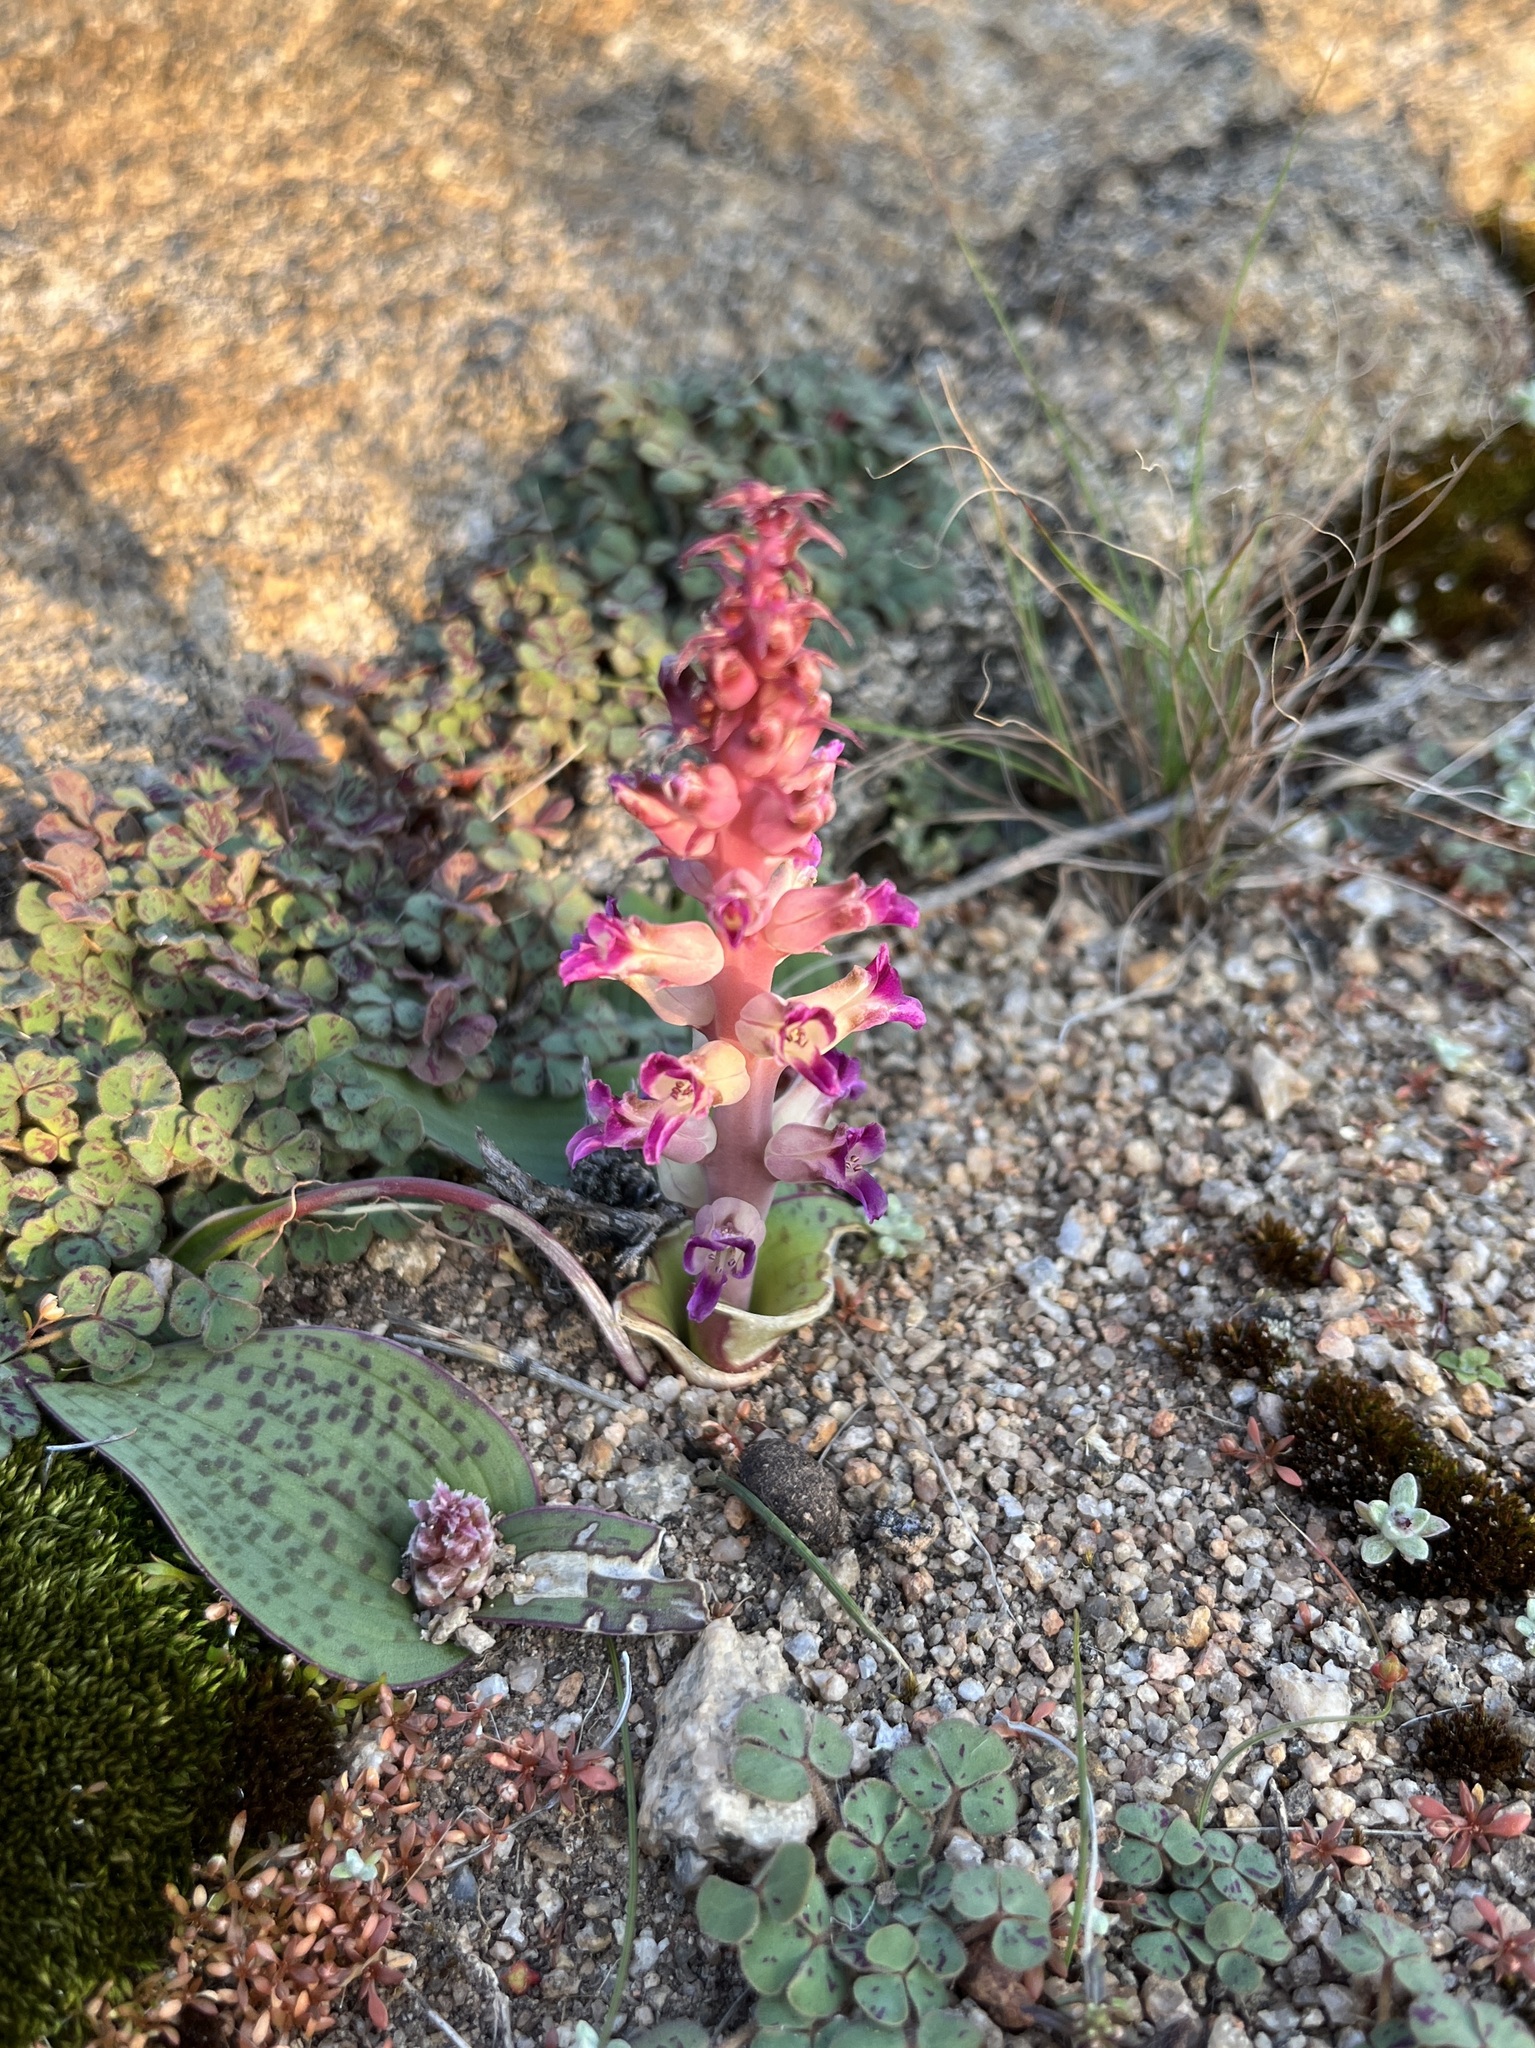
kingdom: Plantae
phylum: Tracheophyta
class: Liliopsida
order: Asparagales
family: Asparagaceae
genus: Lachenalia
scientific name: Lachenalia carnosa
